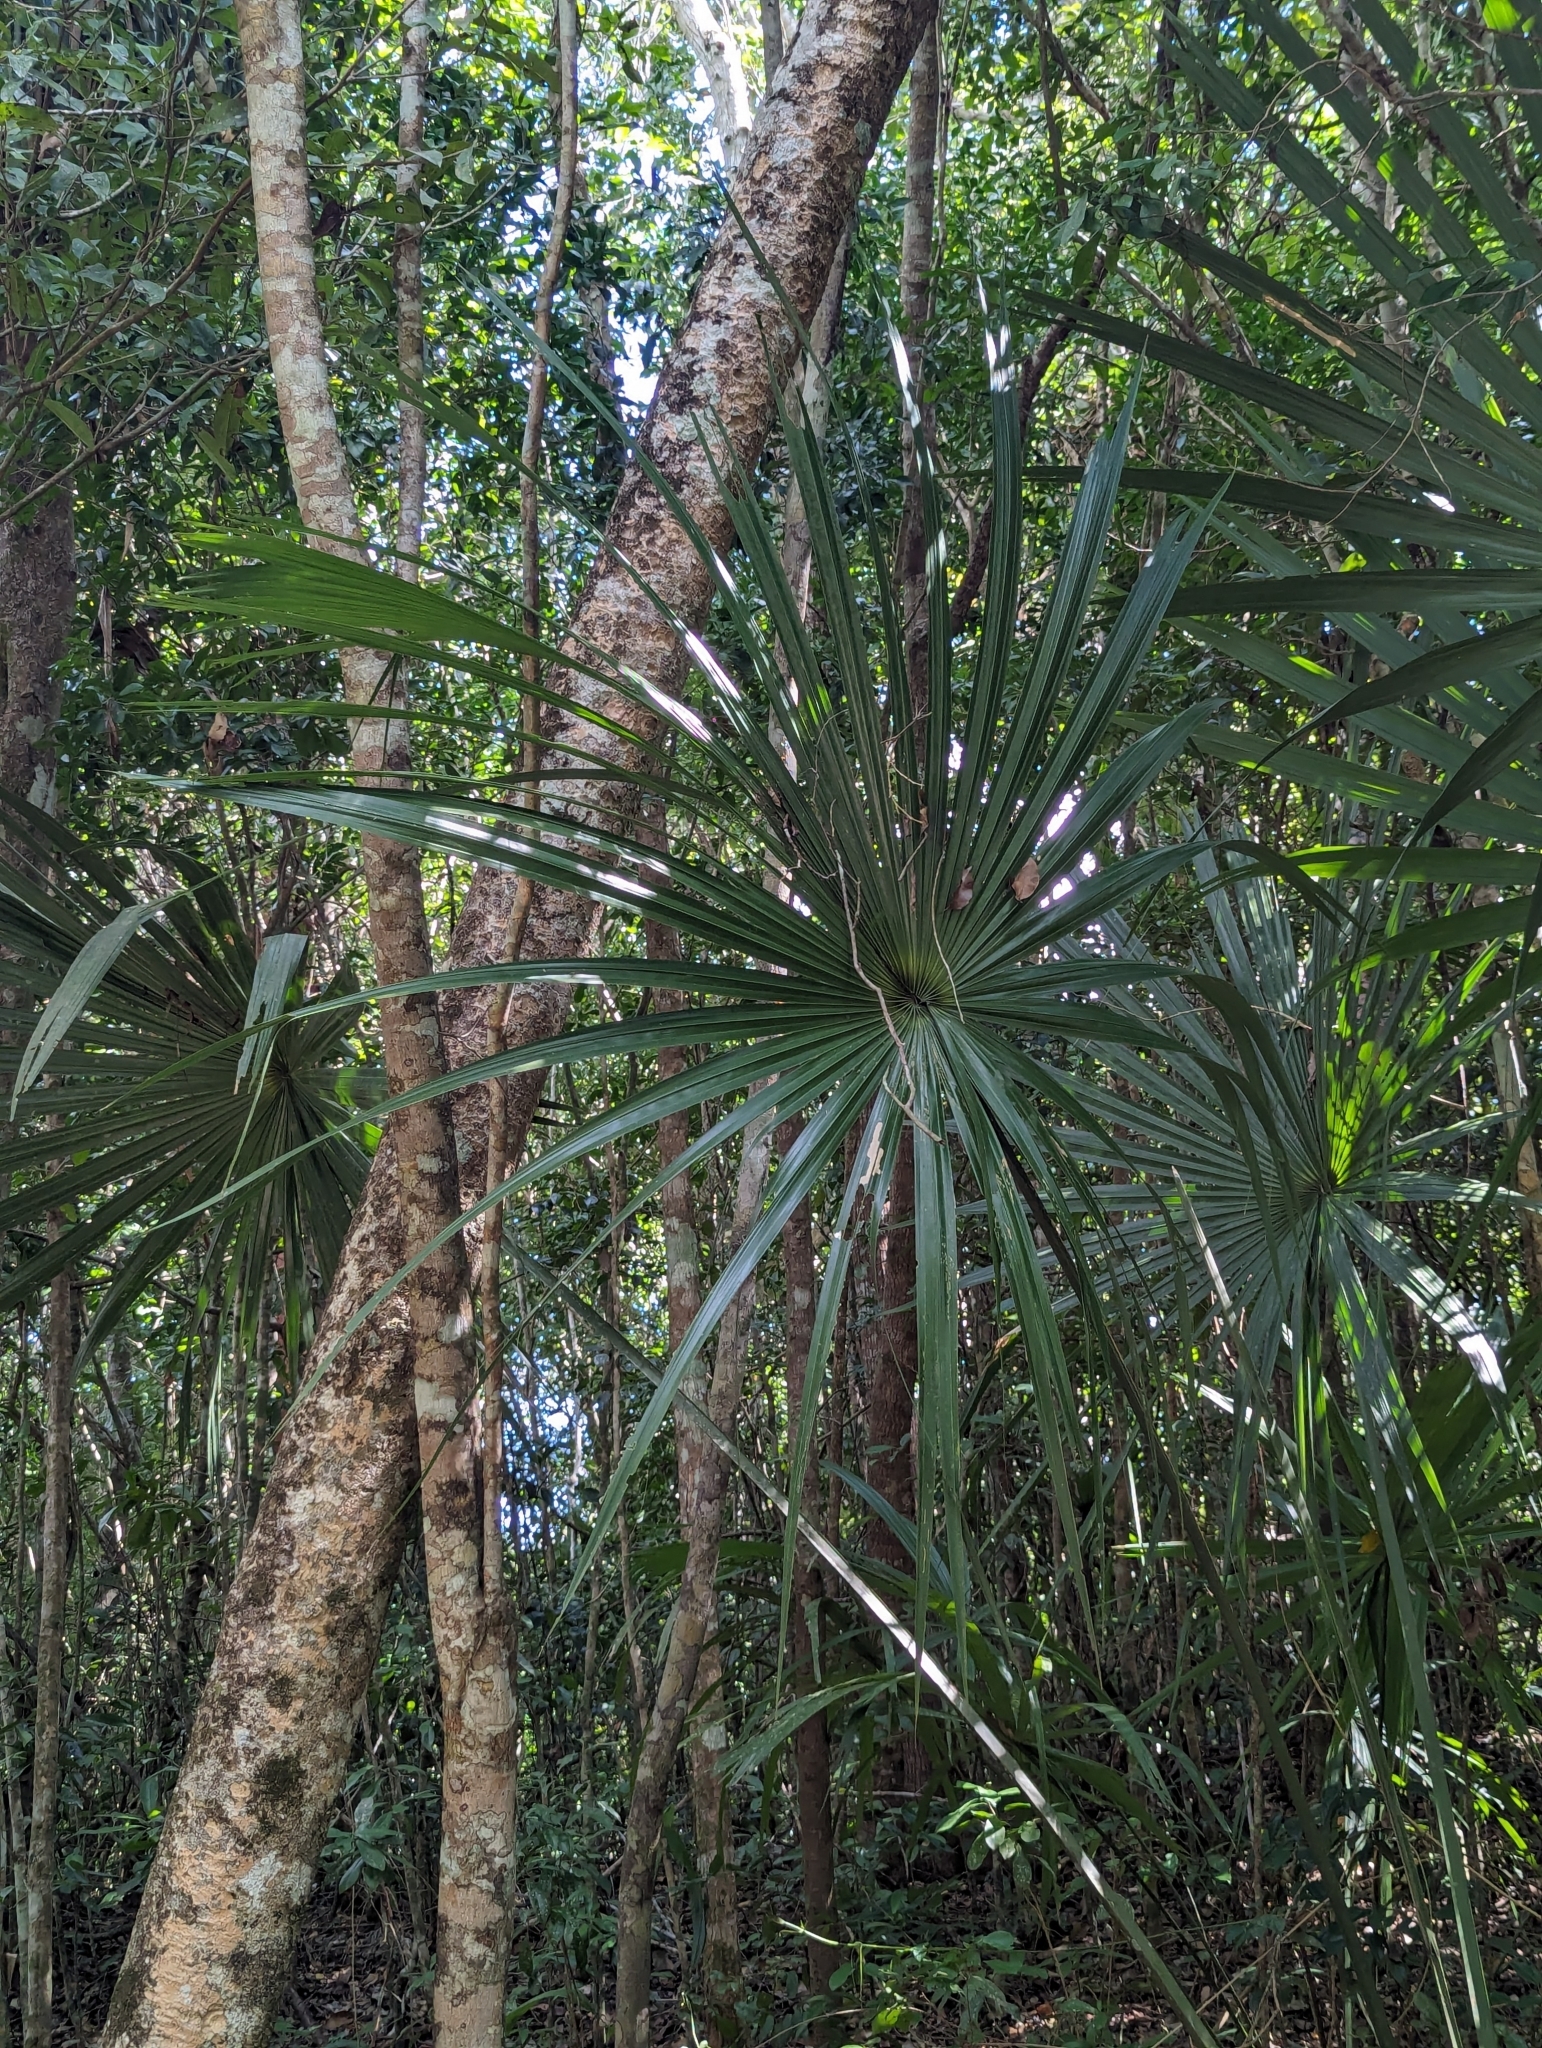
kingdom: Plantae
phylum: Tracheophyta
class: Liliopsida
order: Arecales
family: Arecaceae
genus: Sabal
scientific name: Sabal yapa
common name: Thatch palm
